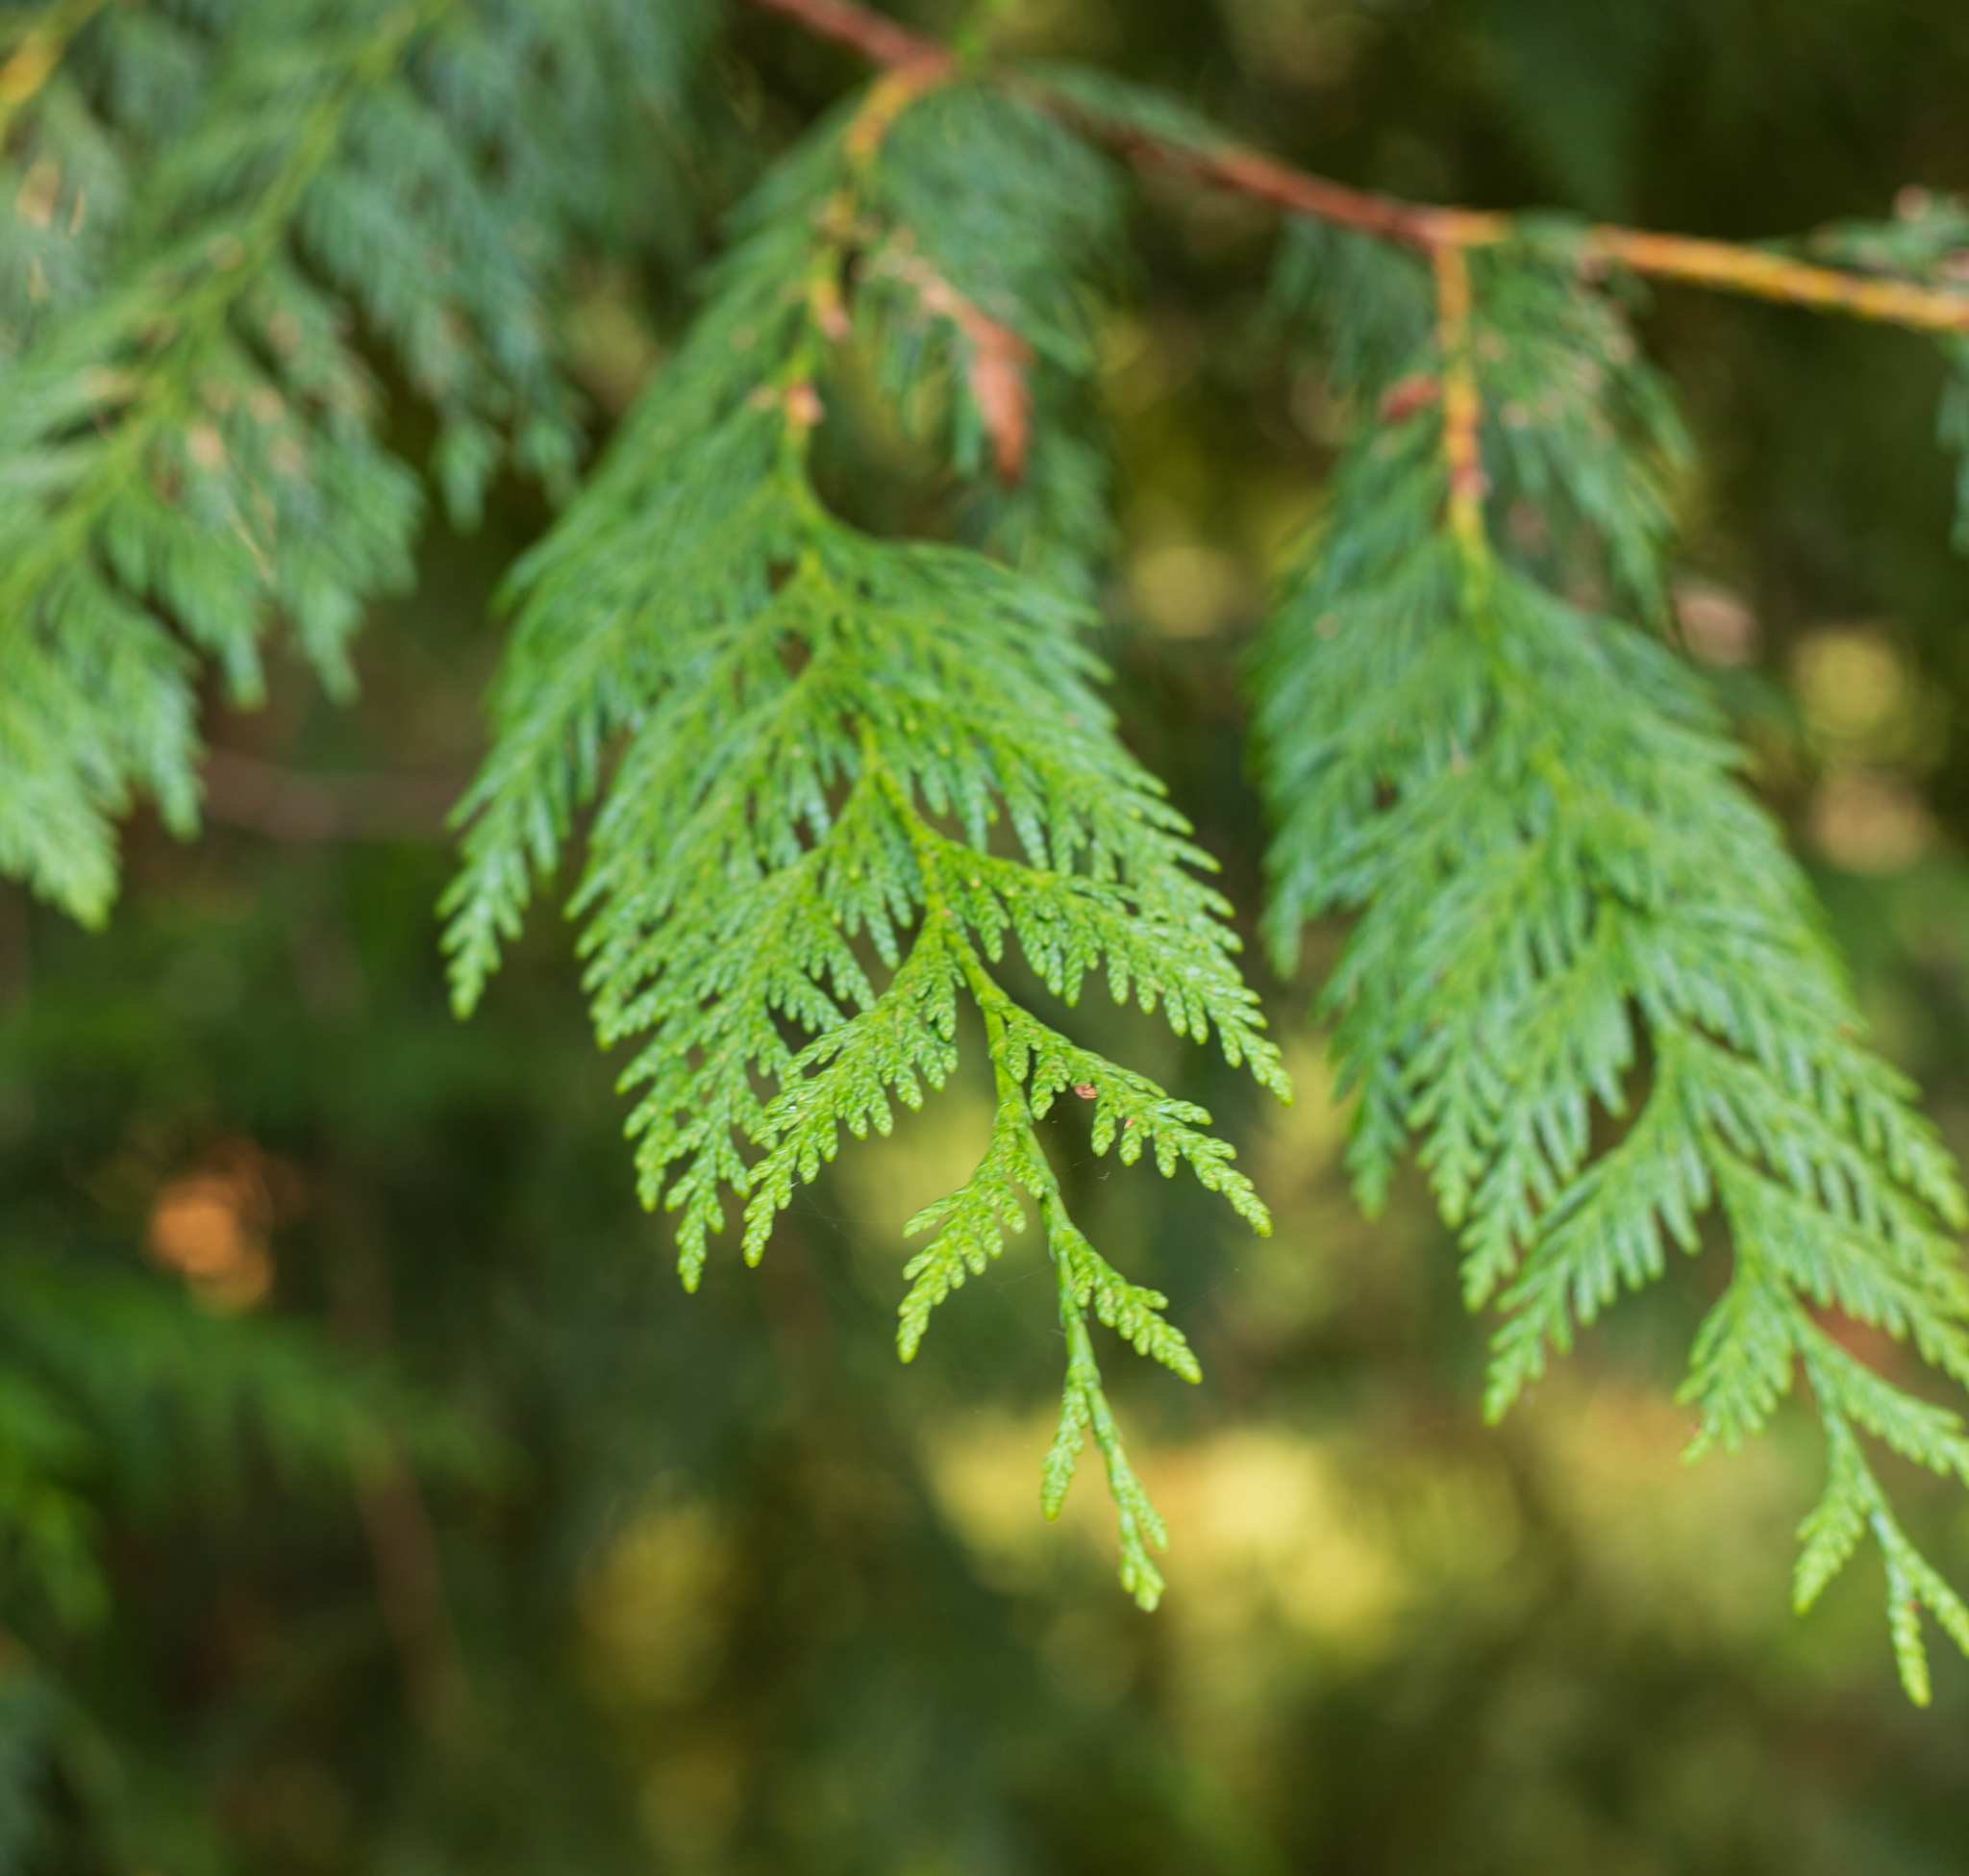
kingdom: Plantae
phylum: Tracheophyta
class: Pinopsida
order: Pinales
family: Cupressaceae
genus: Thuja
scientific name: Thuja plicata
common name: Western red-cedar
